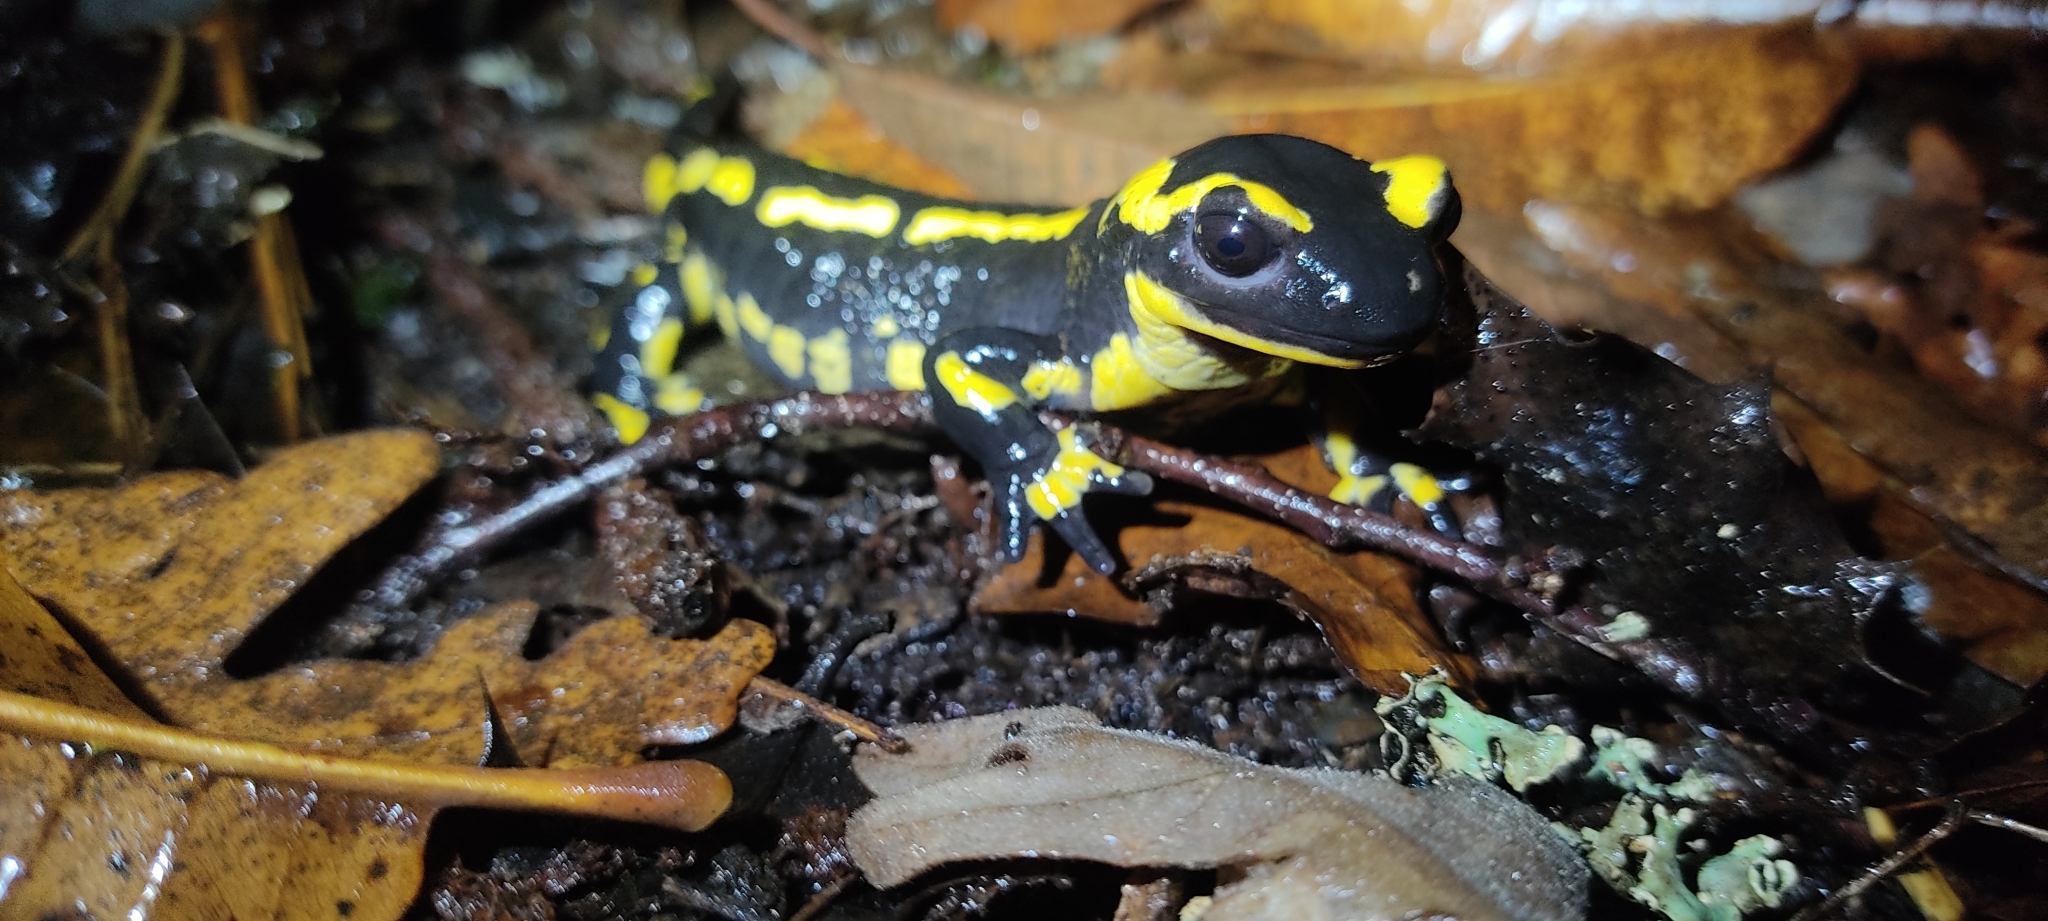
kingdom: Animalia
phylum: Chordata
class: Amphibia
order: Caudata
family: Salamandridae
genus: Salamandra
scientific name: Salamandra salamandra
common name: Fire salamander
